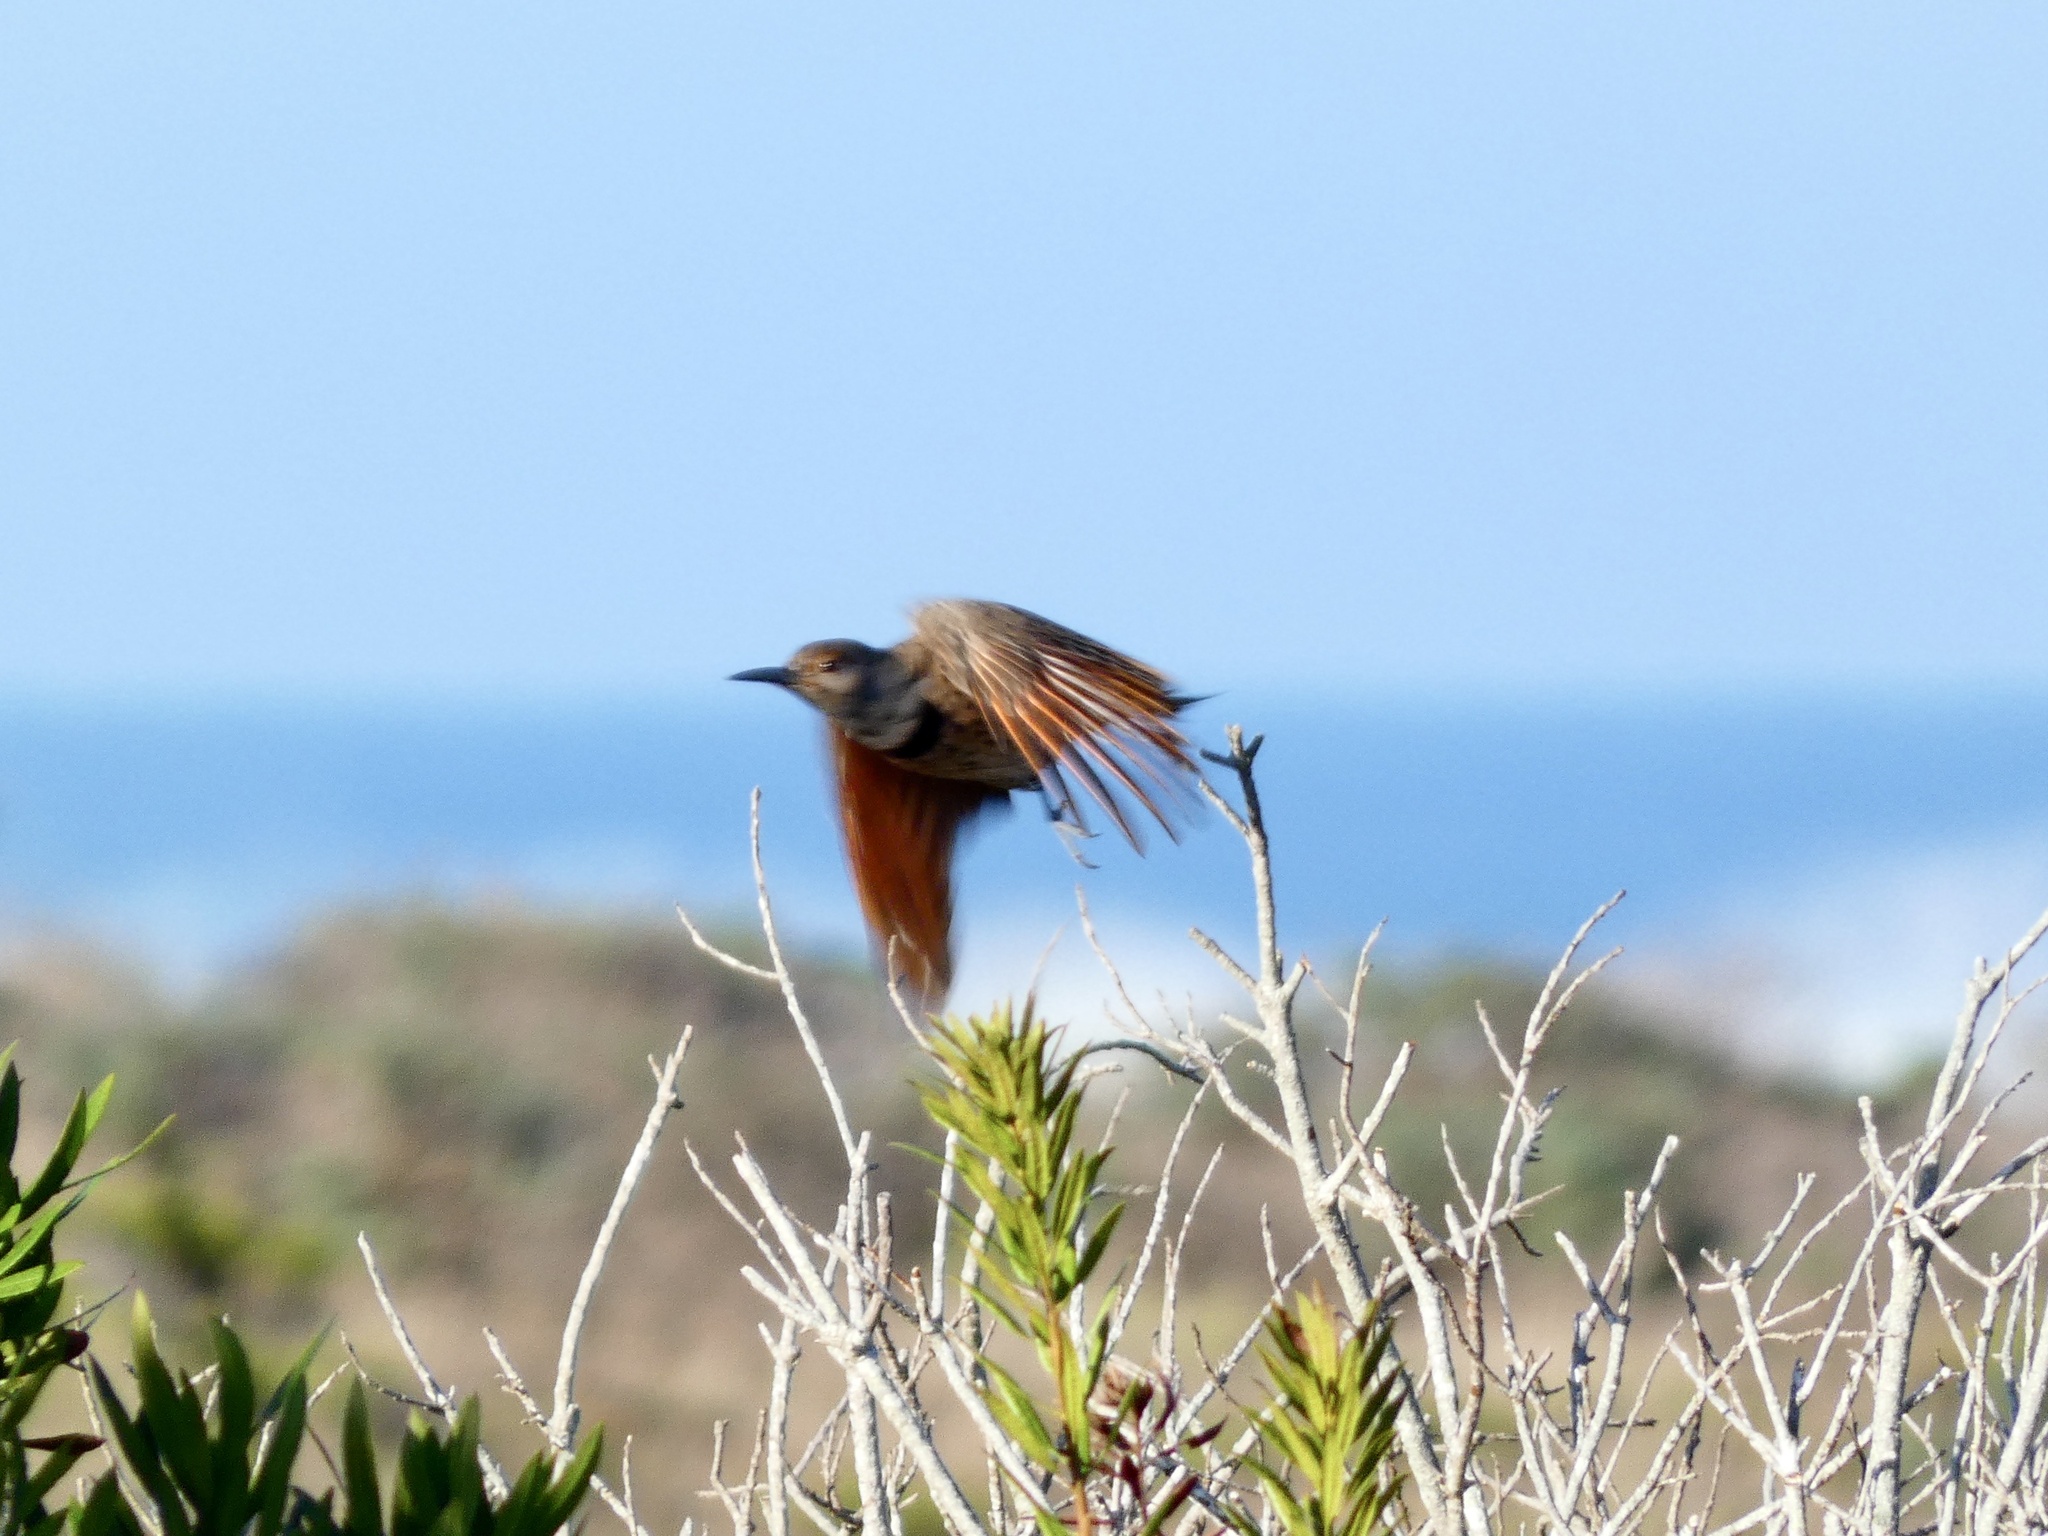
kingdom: Animalia
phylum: Chordata
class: Aves
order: Piciformes
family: Picidae
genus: Colaptes
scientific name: Colaptes auratus
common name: Northern flicker
